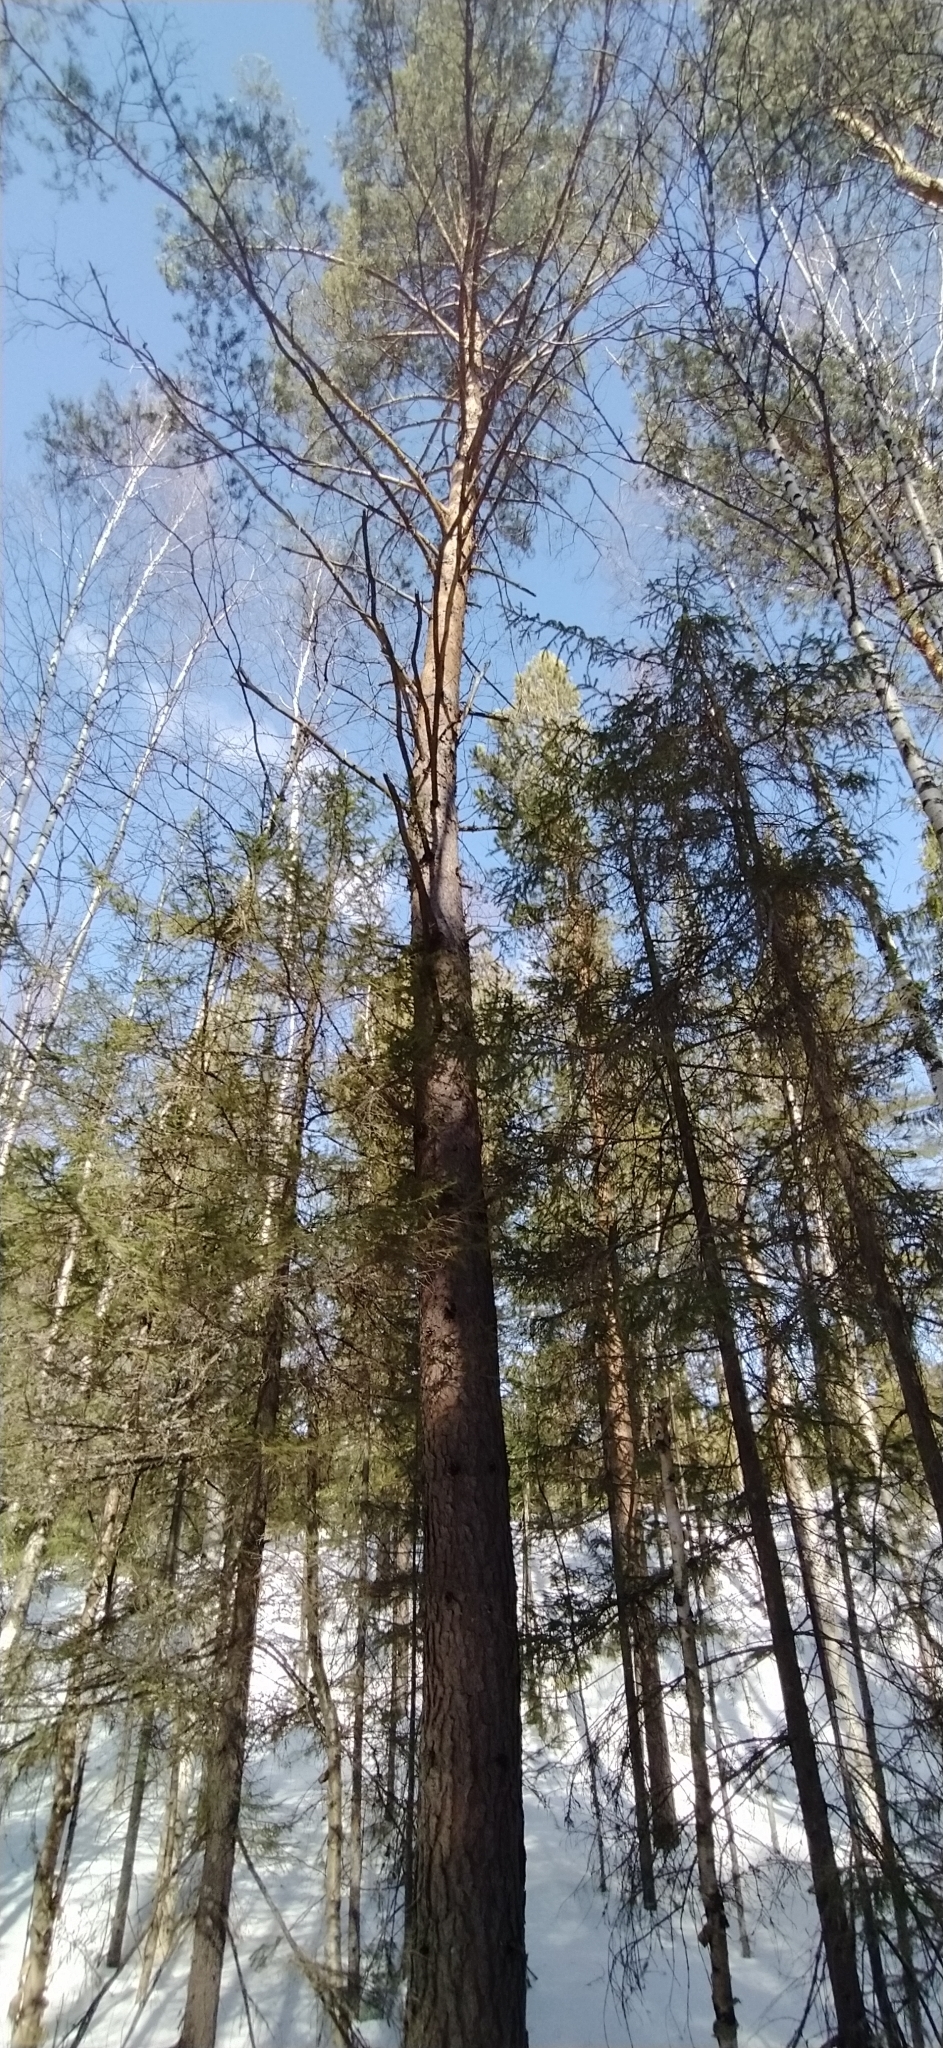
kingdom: Plantae
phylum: Tracheophyta
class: Pinopsida
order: Pinales
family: Pinaceae
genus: Pinus
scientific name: Pinus sylvestris
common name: Scots pine
